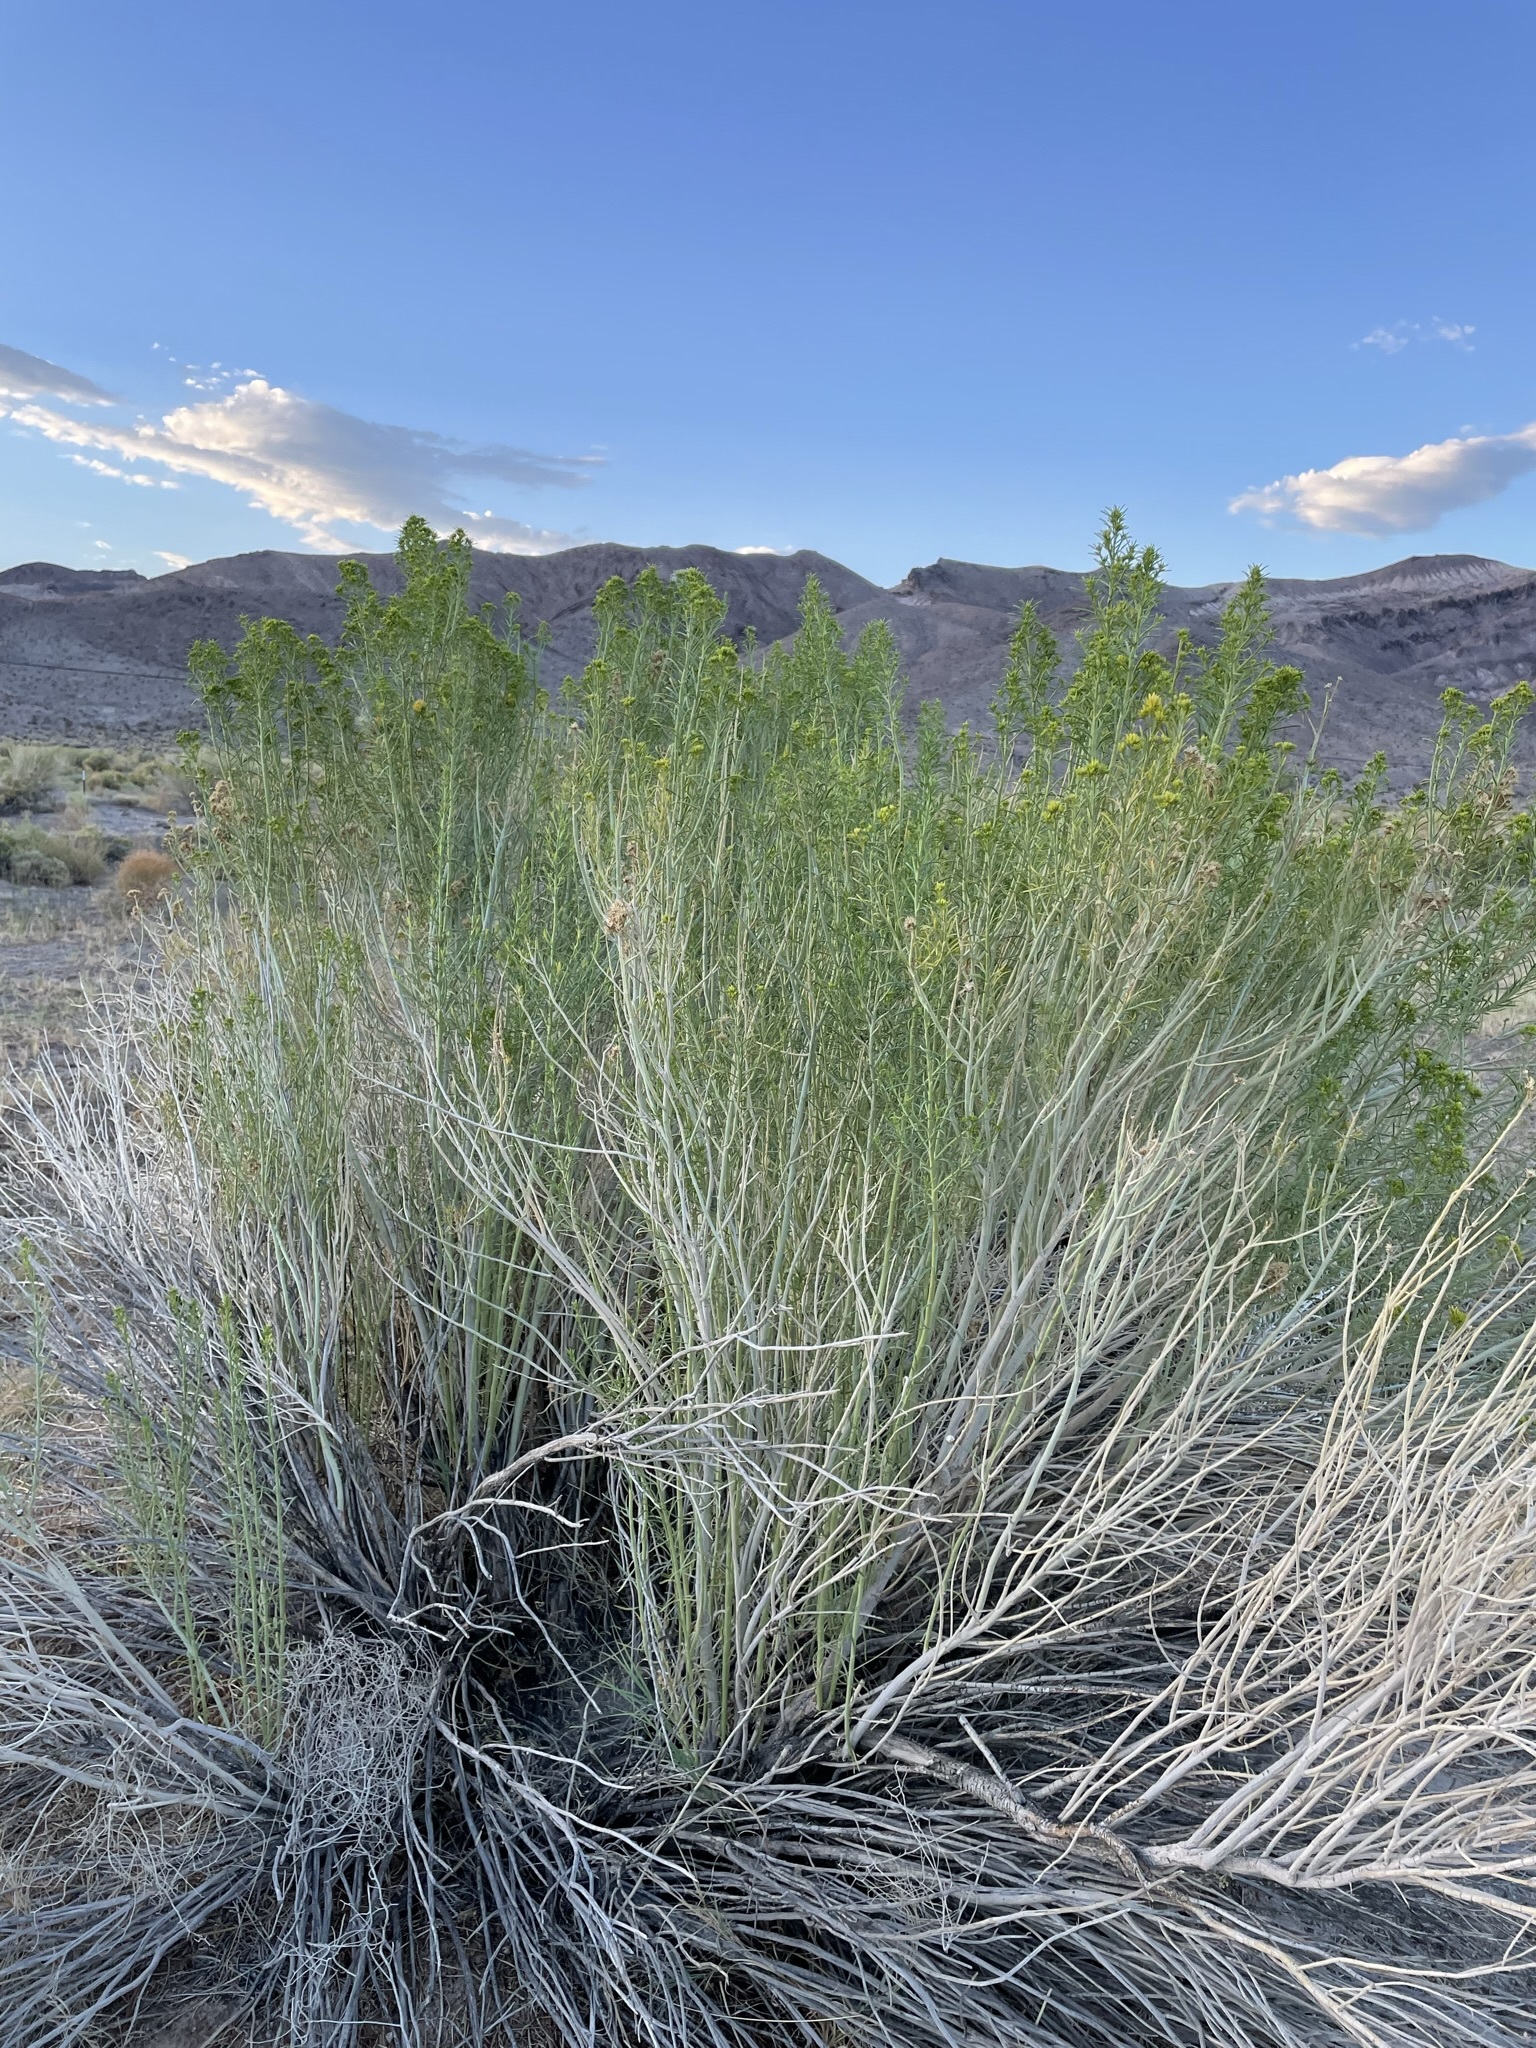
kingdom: Plantae
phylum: Tracheophyta
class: Magnoliopsida
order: Asterales
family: Asteraceae
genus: Ericameria
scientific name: Ericameria nauseosa
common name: Rubber rabbitbrush
